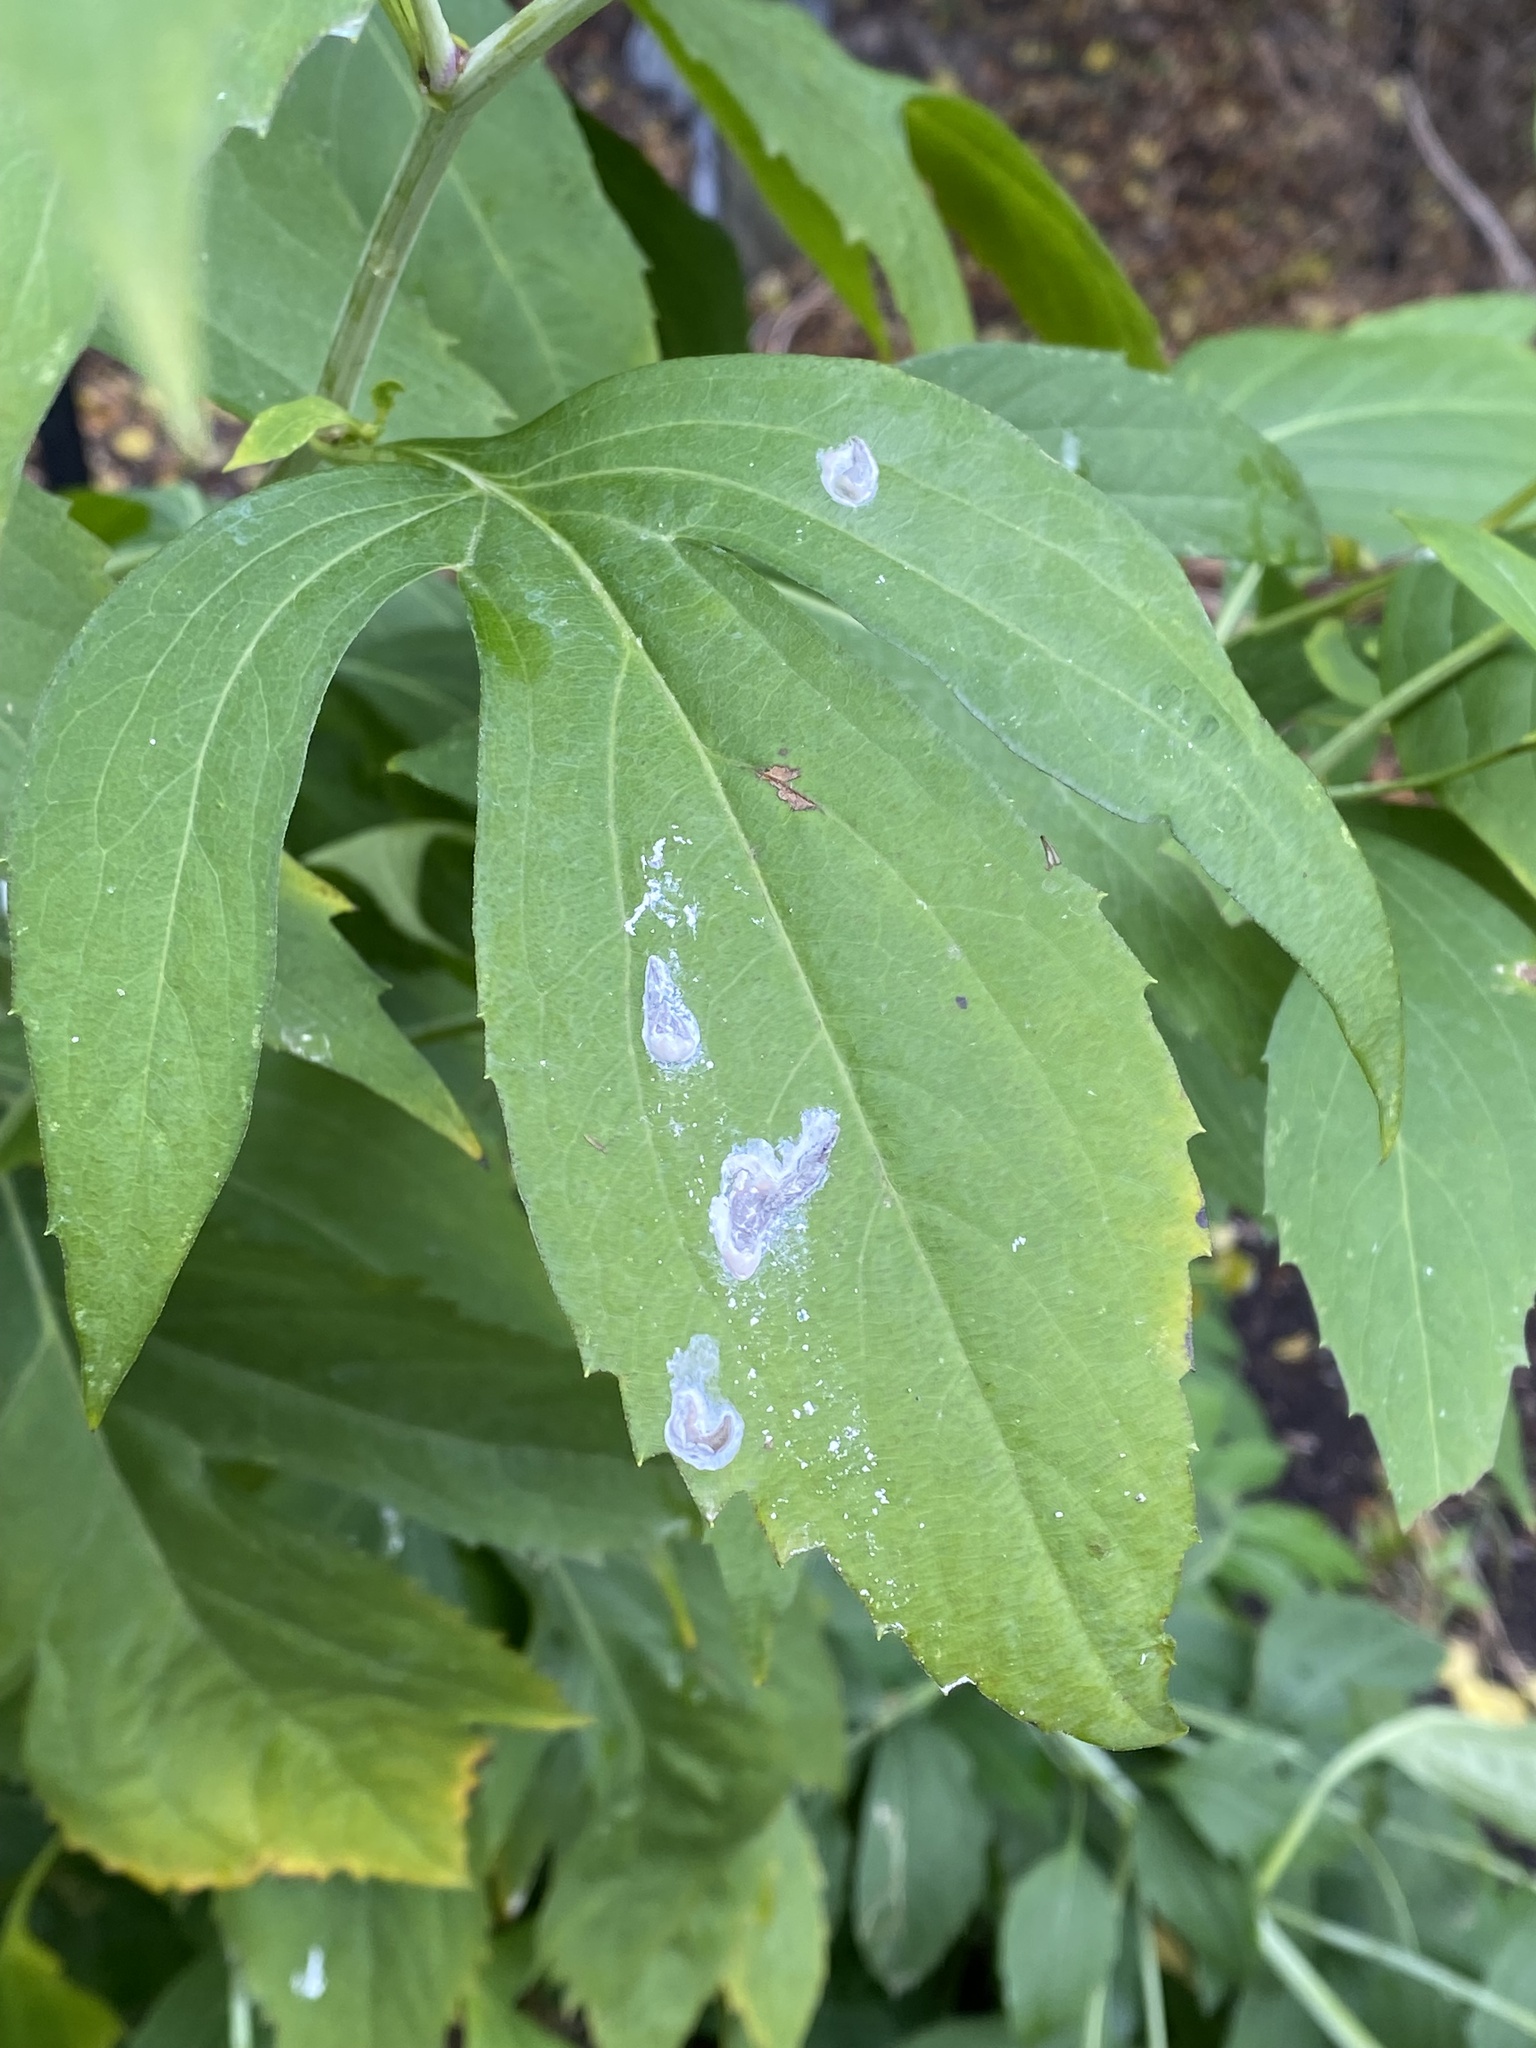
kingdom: Plantae
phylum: Tracheophyta
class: Magnoliopsida
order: Asterales
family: Asteraceae
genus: Rudbeckia
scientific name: Rudbeckia laciniata
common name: Coneflower
